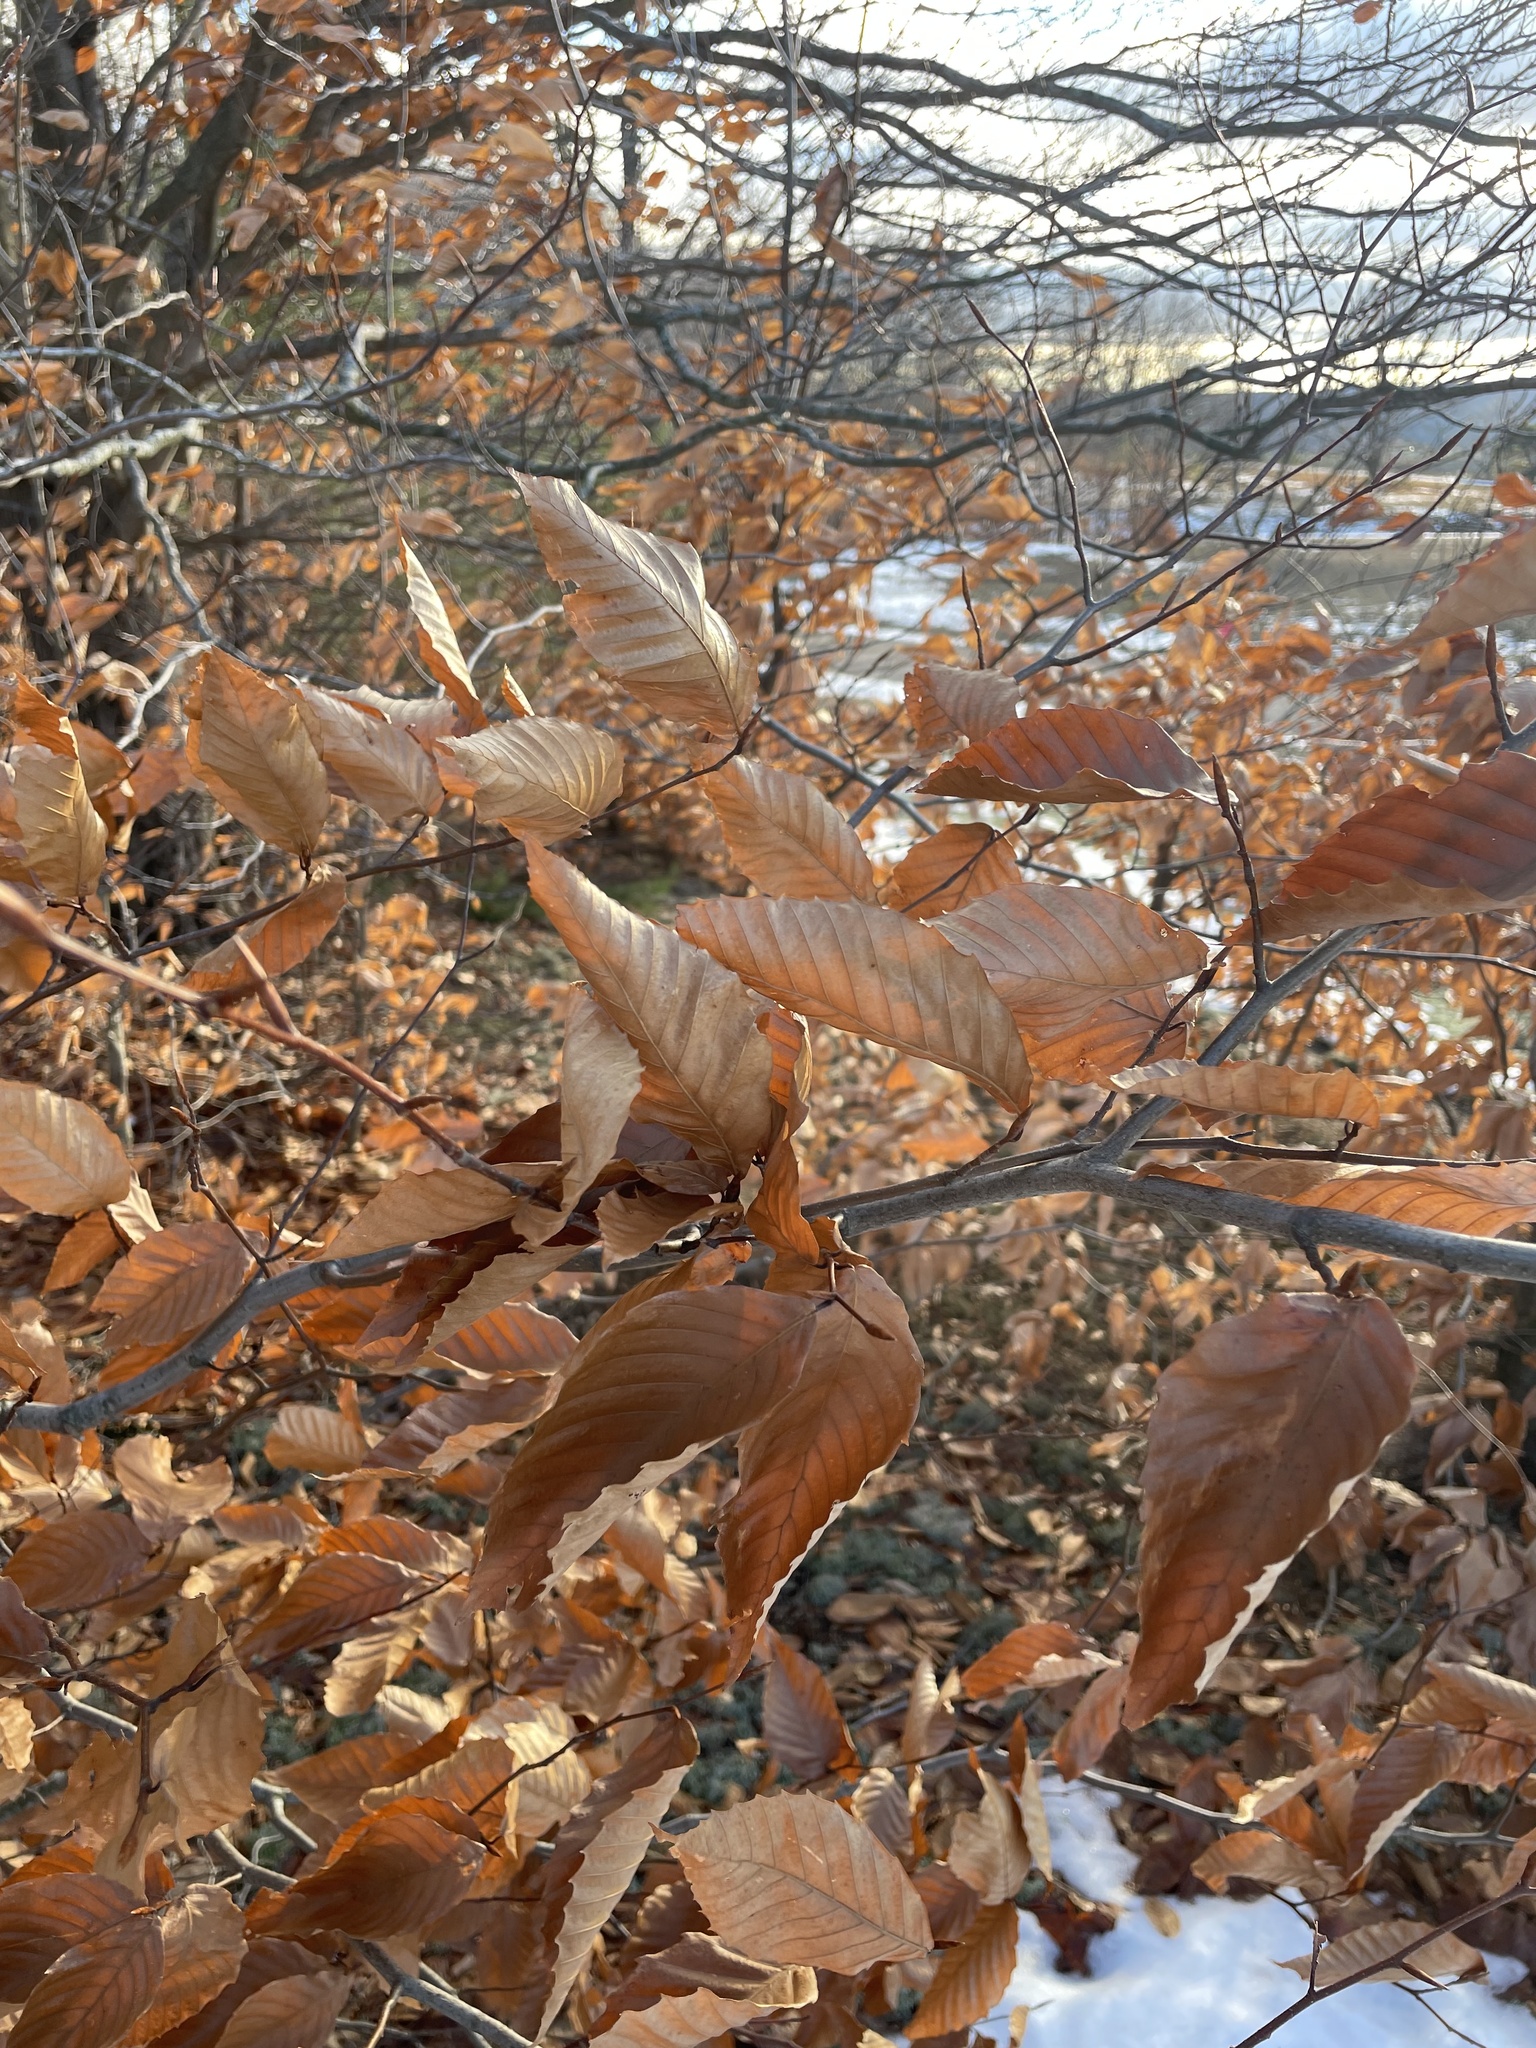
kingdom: Plantae
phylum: Tracheophyta
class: Magnoliopsida
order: Fagales
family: Fagaceae
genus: Fagus
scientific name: Fagus grandifolia
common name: American beech
